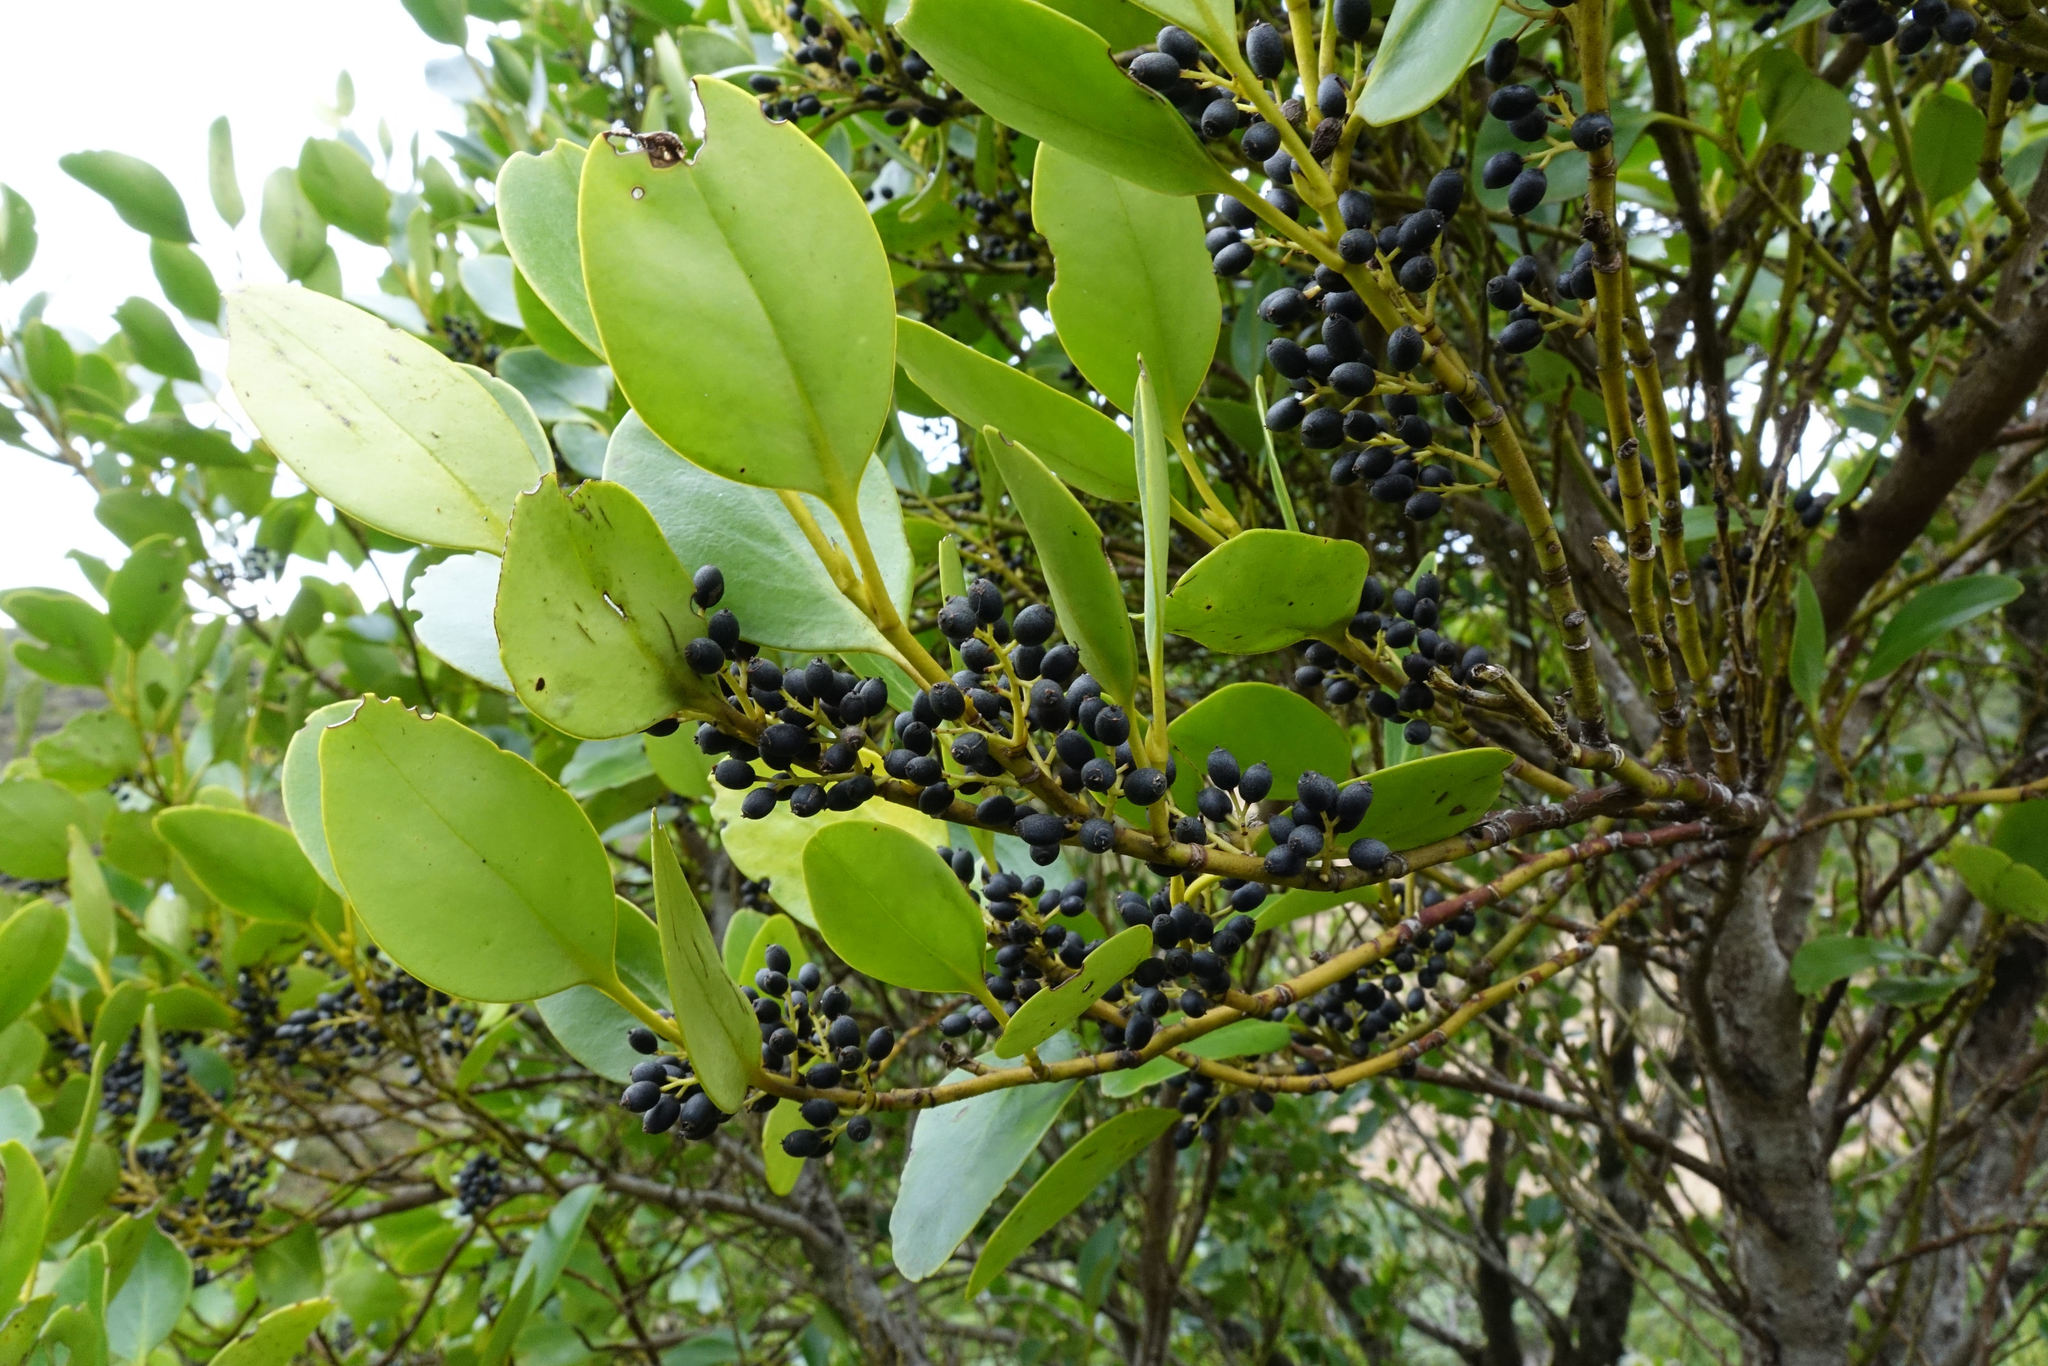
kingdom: Plantae
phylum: Tracheophyta
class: Magnoliopsida
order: Apiales
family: Griseliniaceae
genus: Griselinia
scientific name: Griselinia littoralis
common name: New zealand broadleaf
